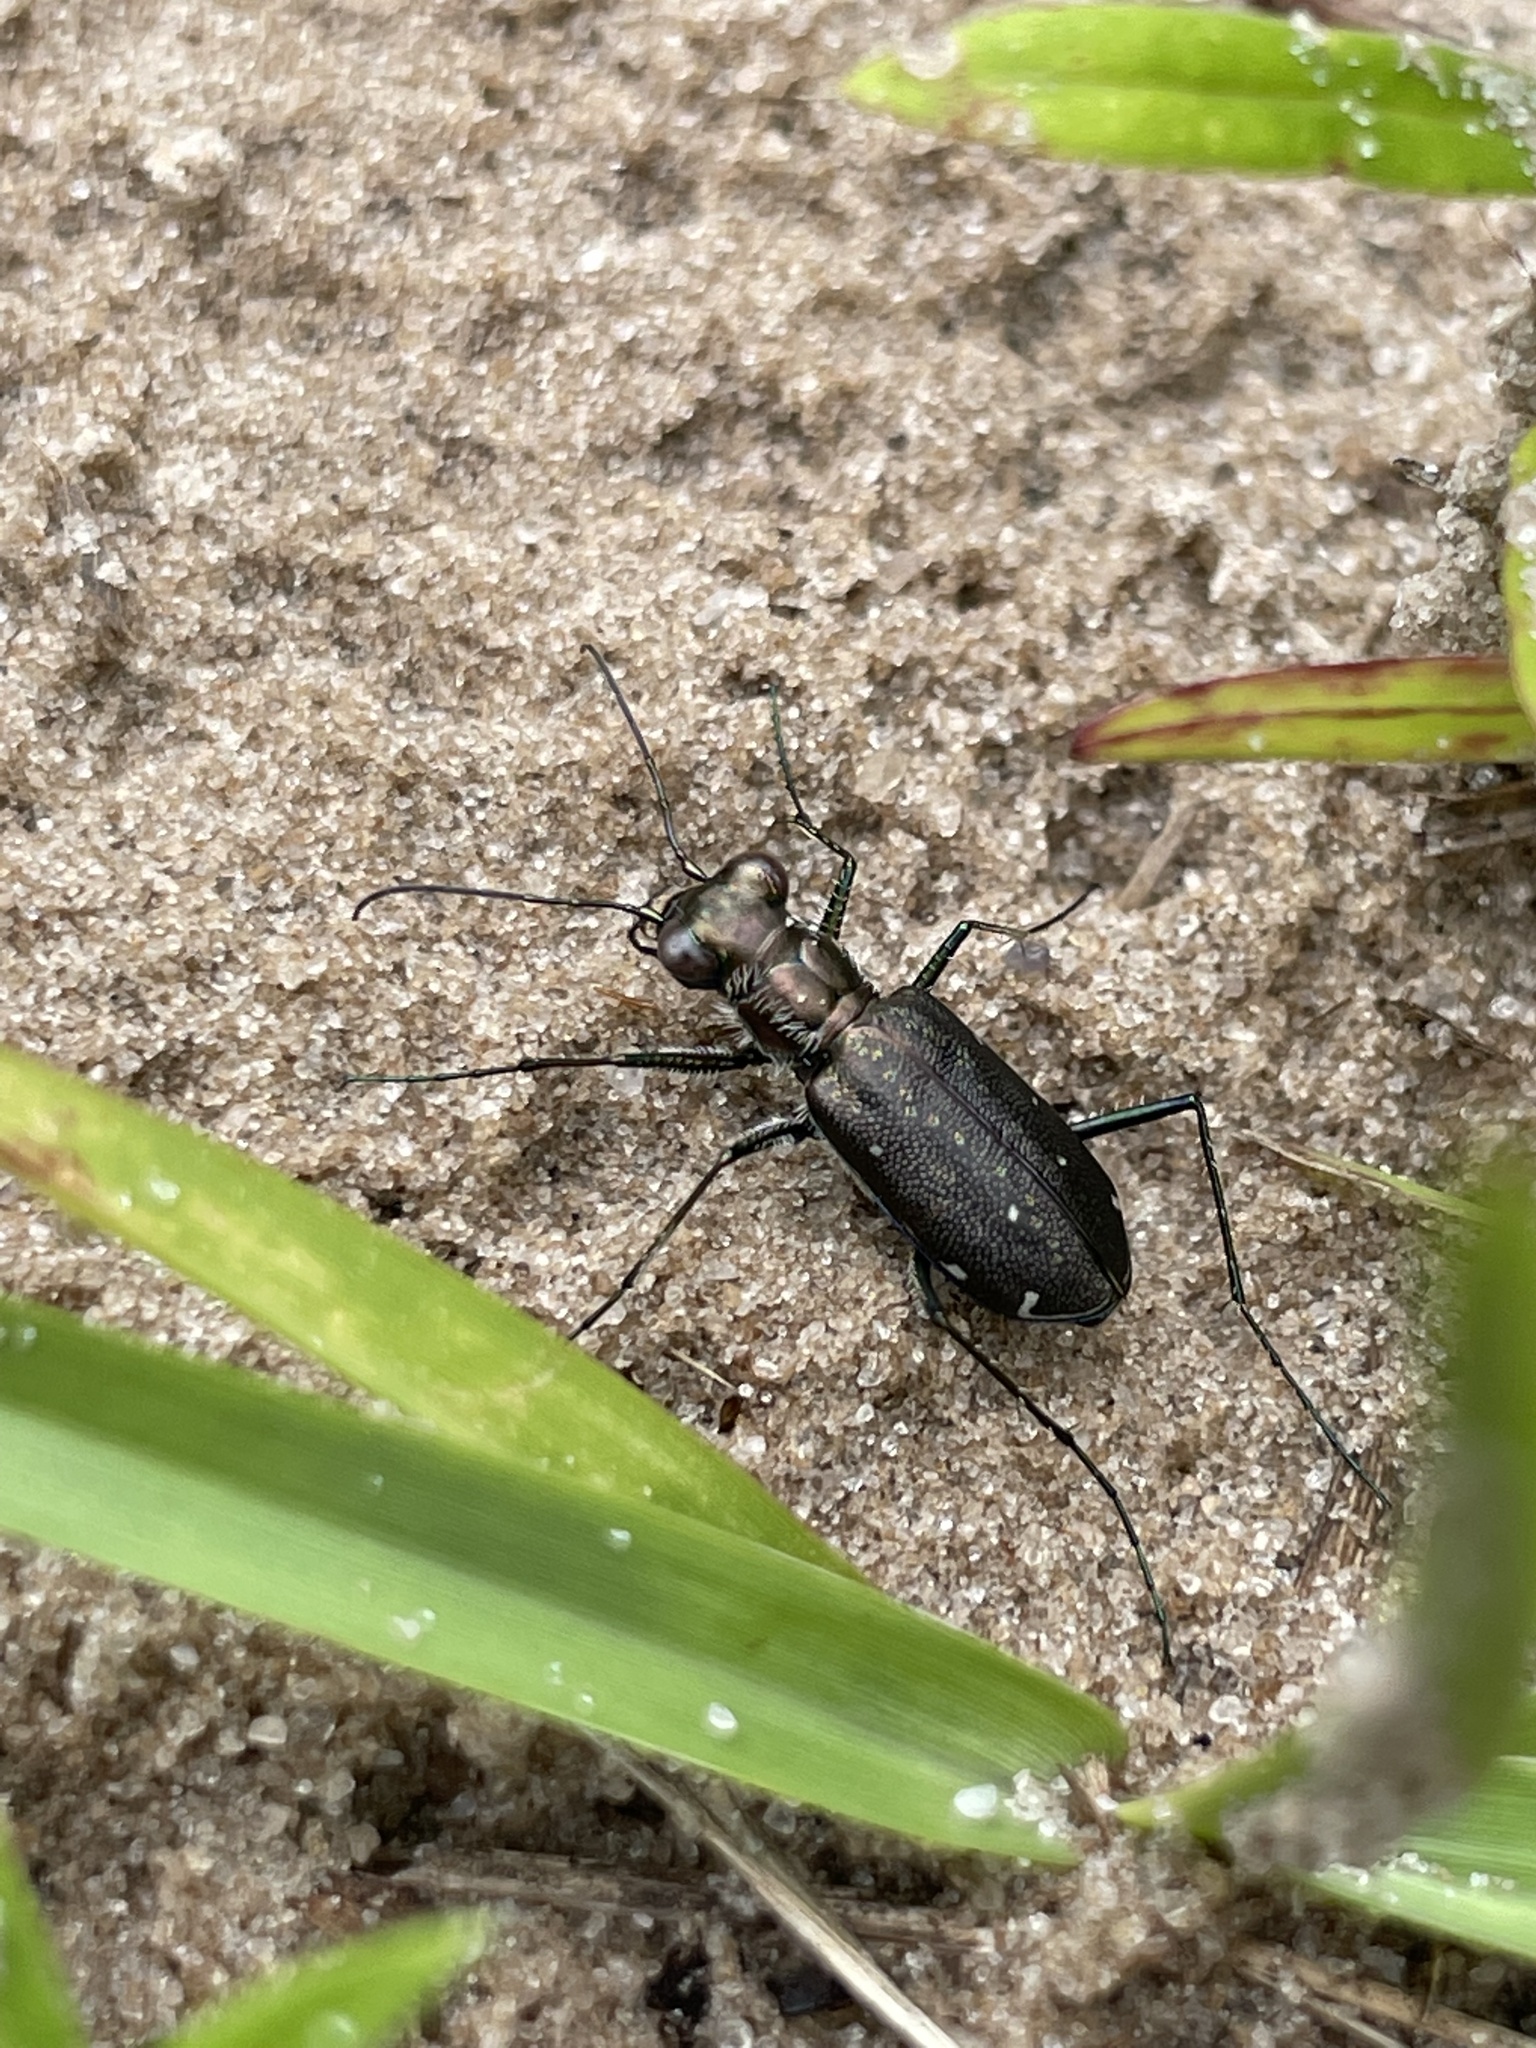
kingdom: Animalia
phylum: Arthropoda
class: Insecta
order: Coleoptera
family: Carabidae
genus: Cicindela
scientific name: Cicindela punctulata
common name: Punctured tiger beetle
